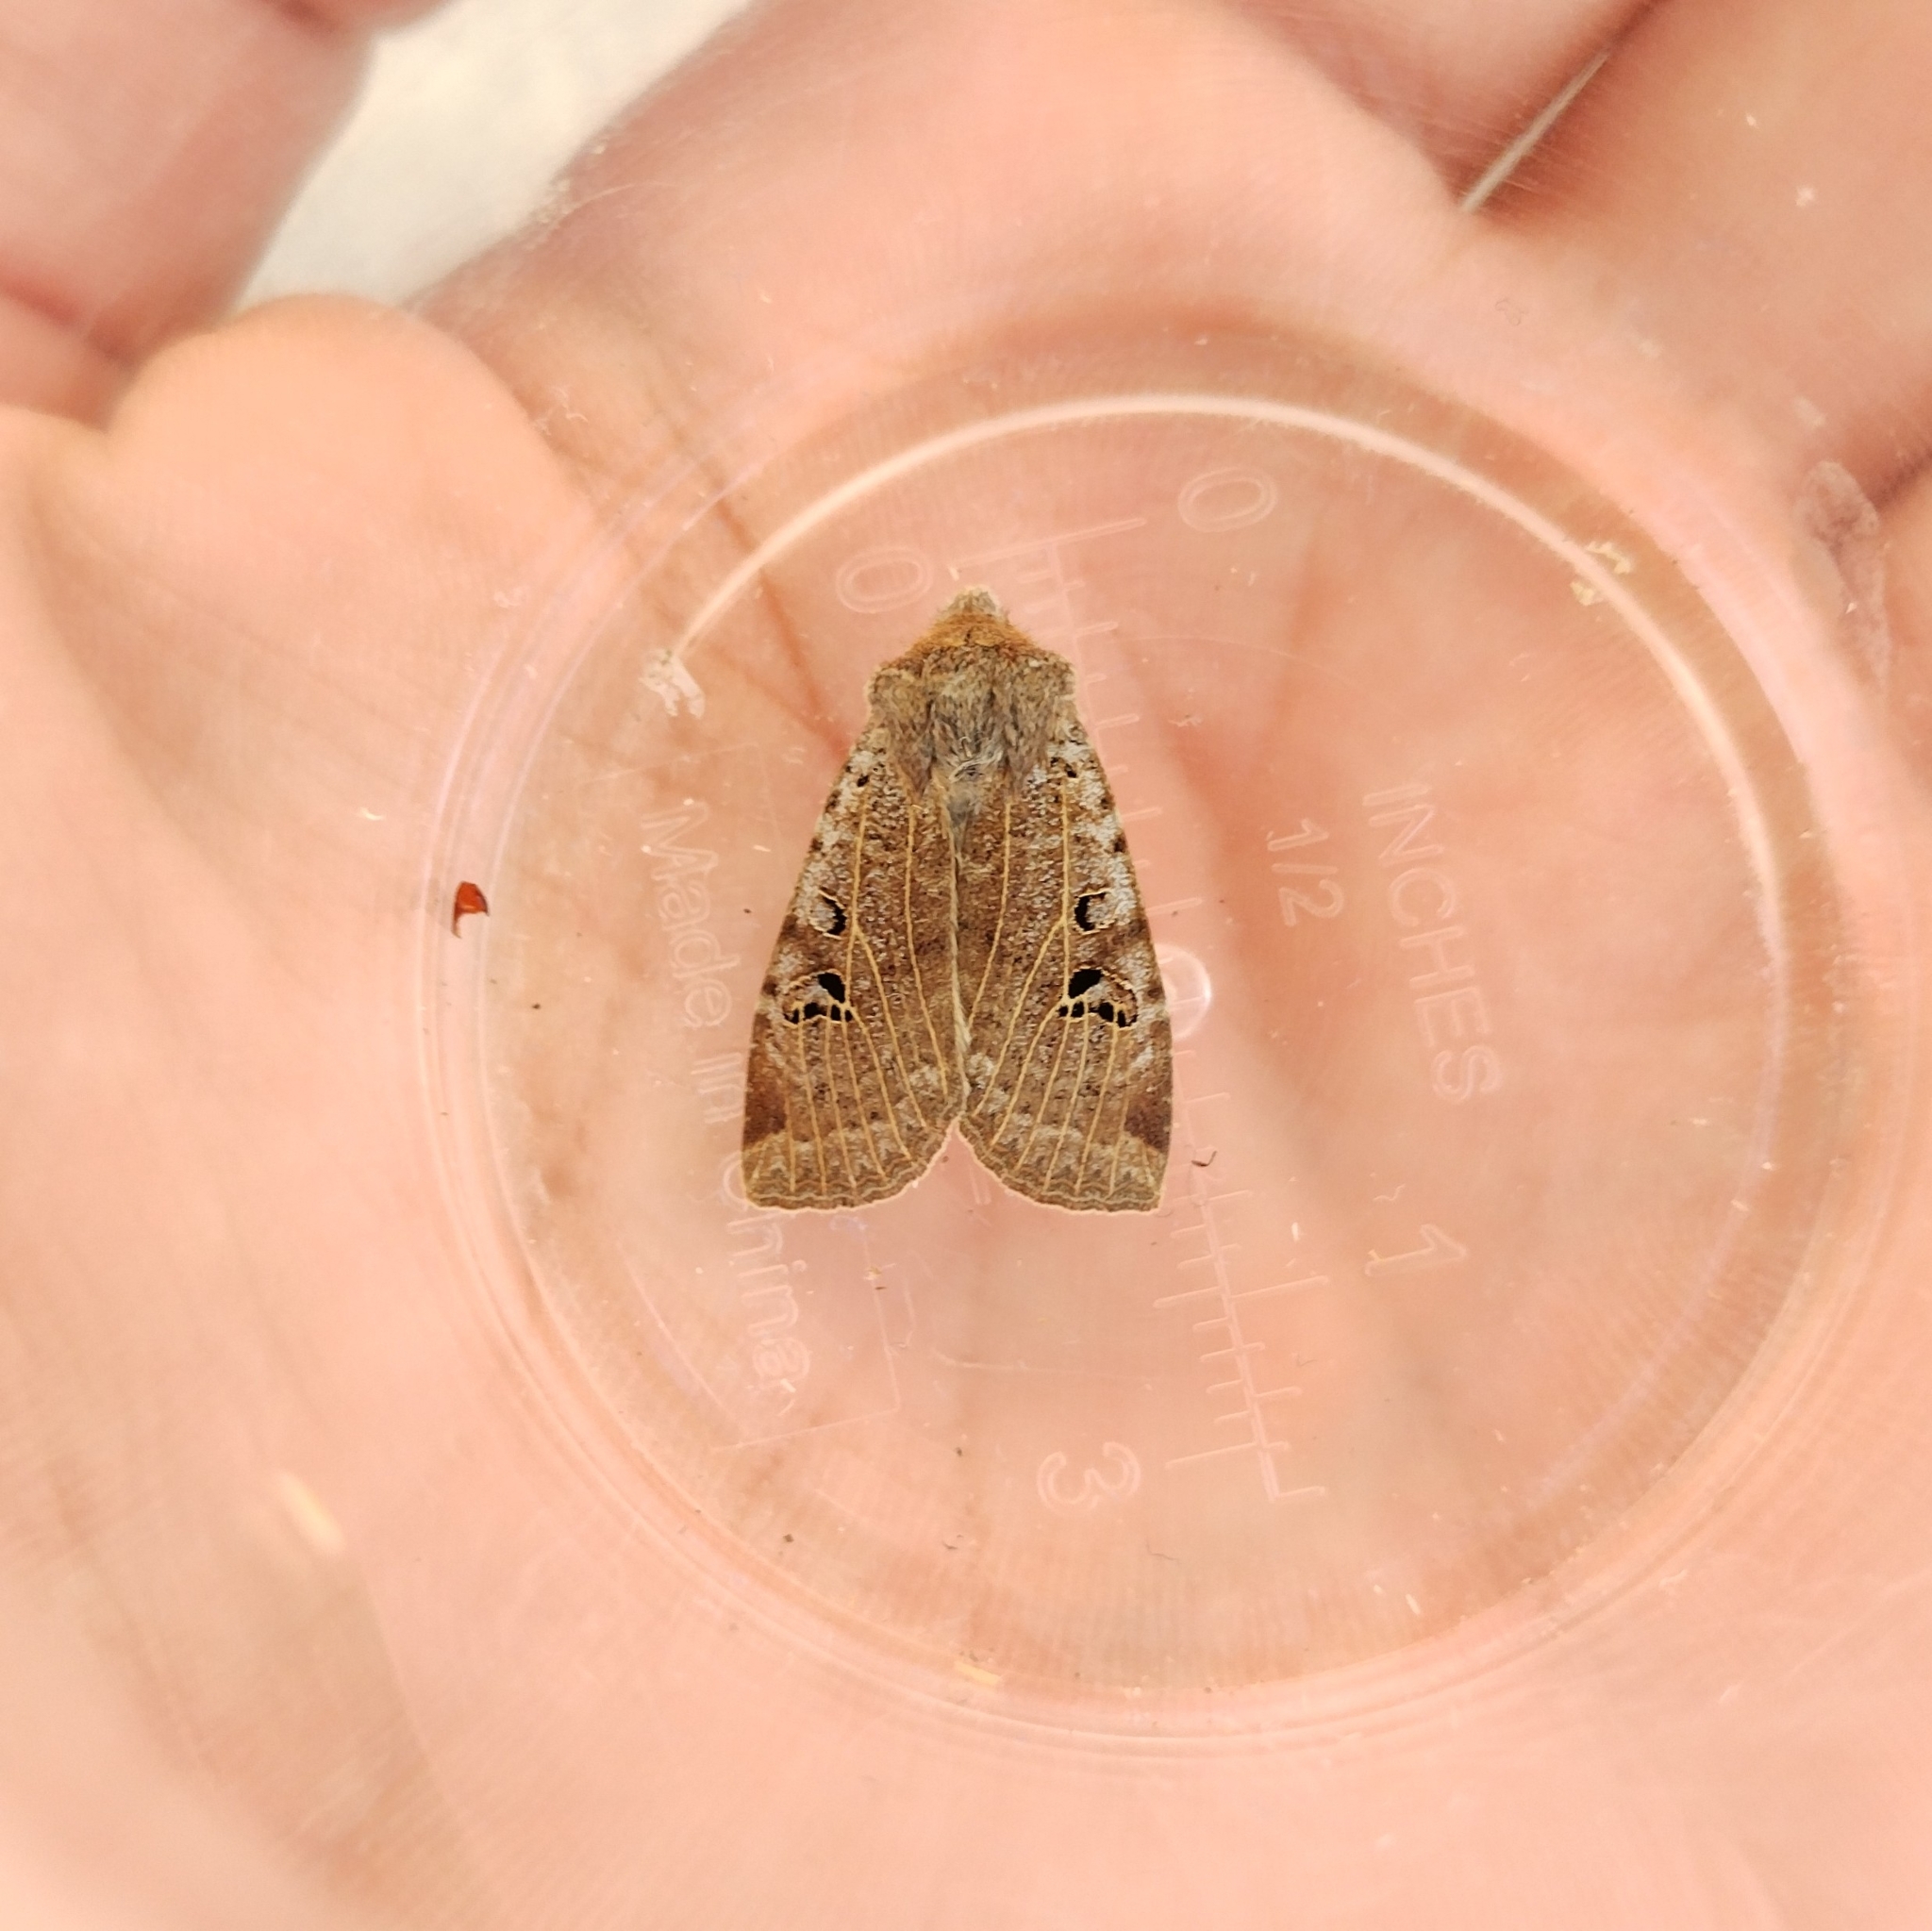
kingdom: Animalia
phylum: Arthropoda
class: Insecta
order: Lepidoptera
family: Noctuidae
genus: Conistra
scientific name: Conistra rubiginosa
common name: Black-spotted chestnut
